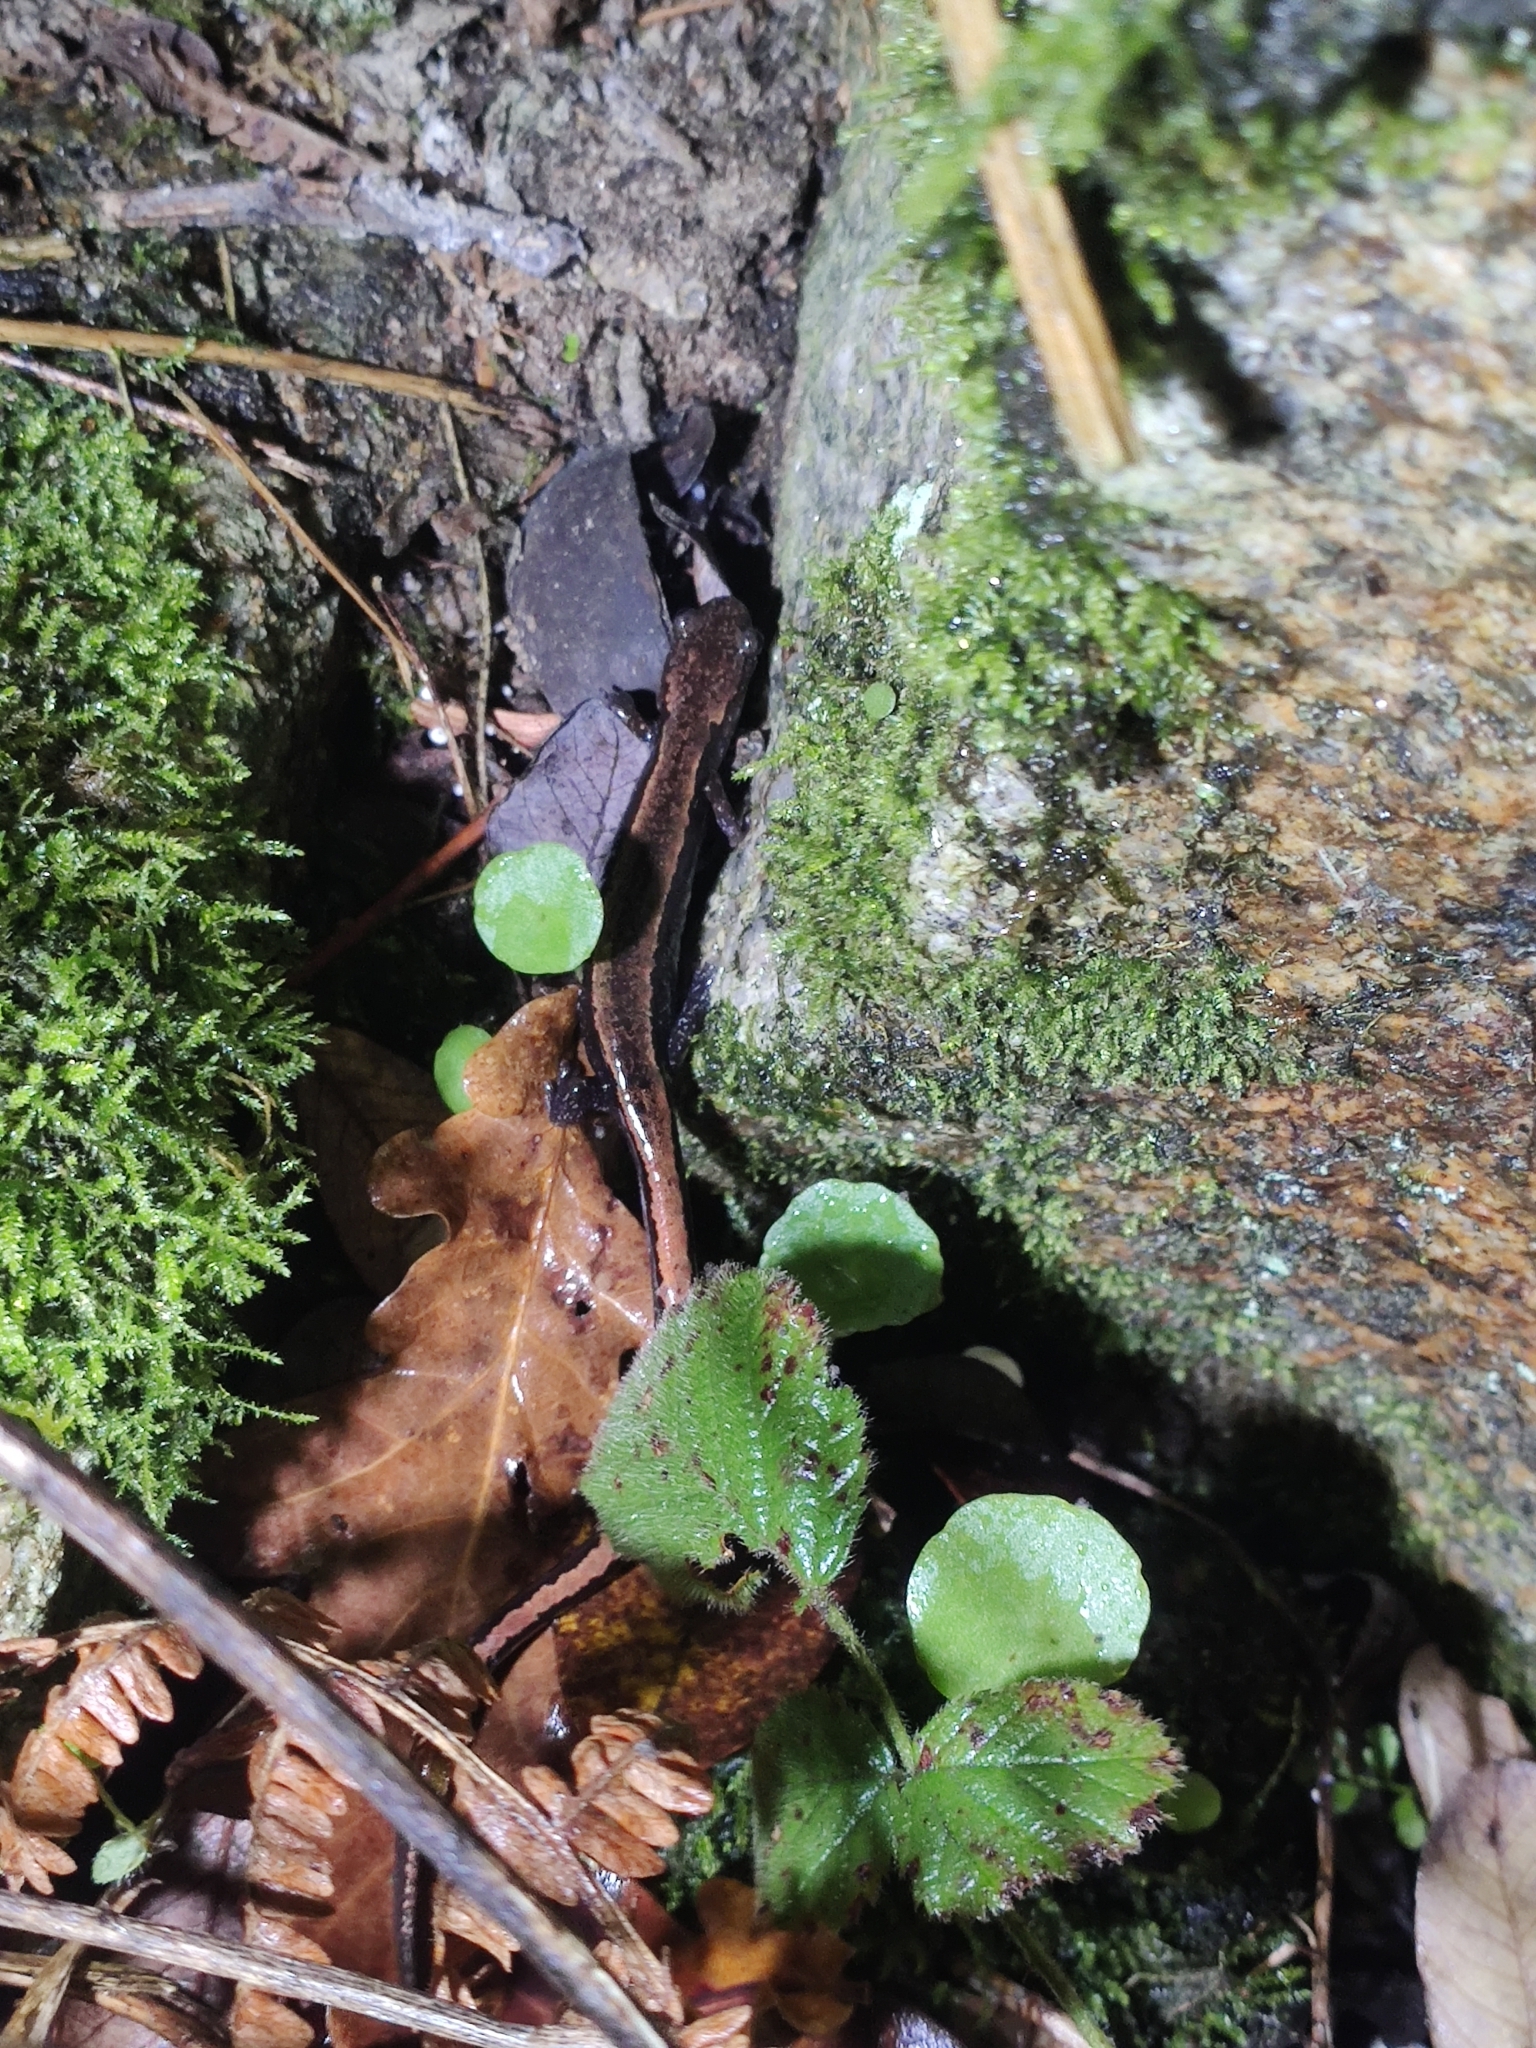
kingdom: Animalia
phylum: Chordata
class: Amphibia
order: Caudata
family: Salamandridae
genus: Chioglossa
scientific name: Chioglossa lusitanica
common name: Gold-striped salamander
